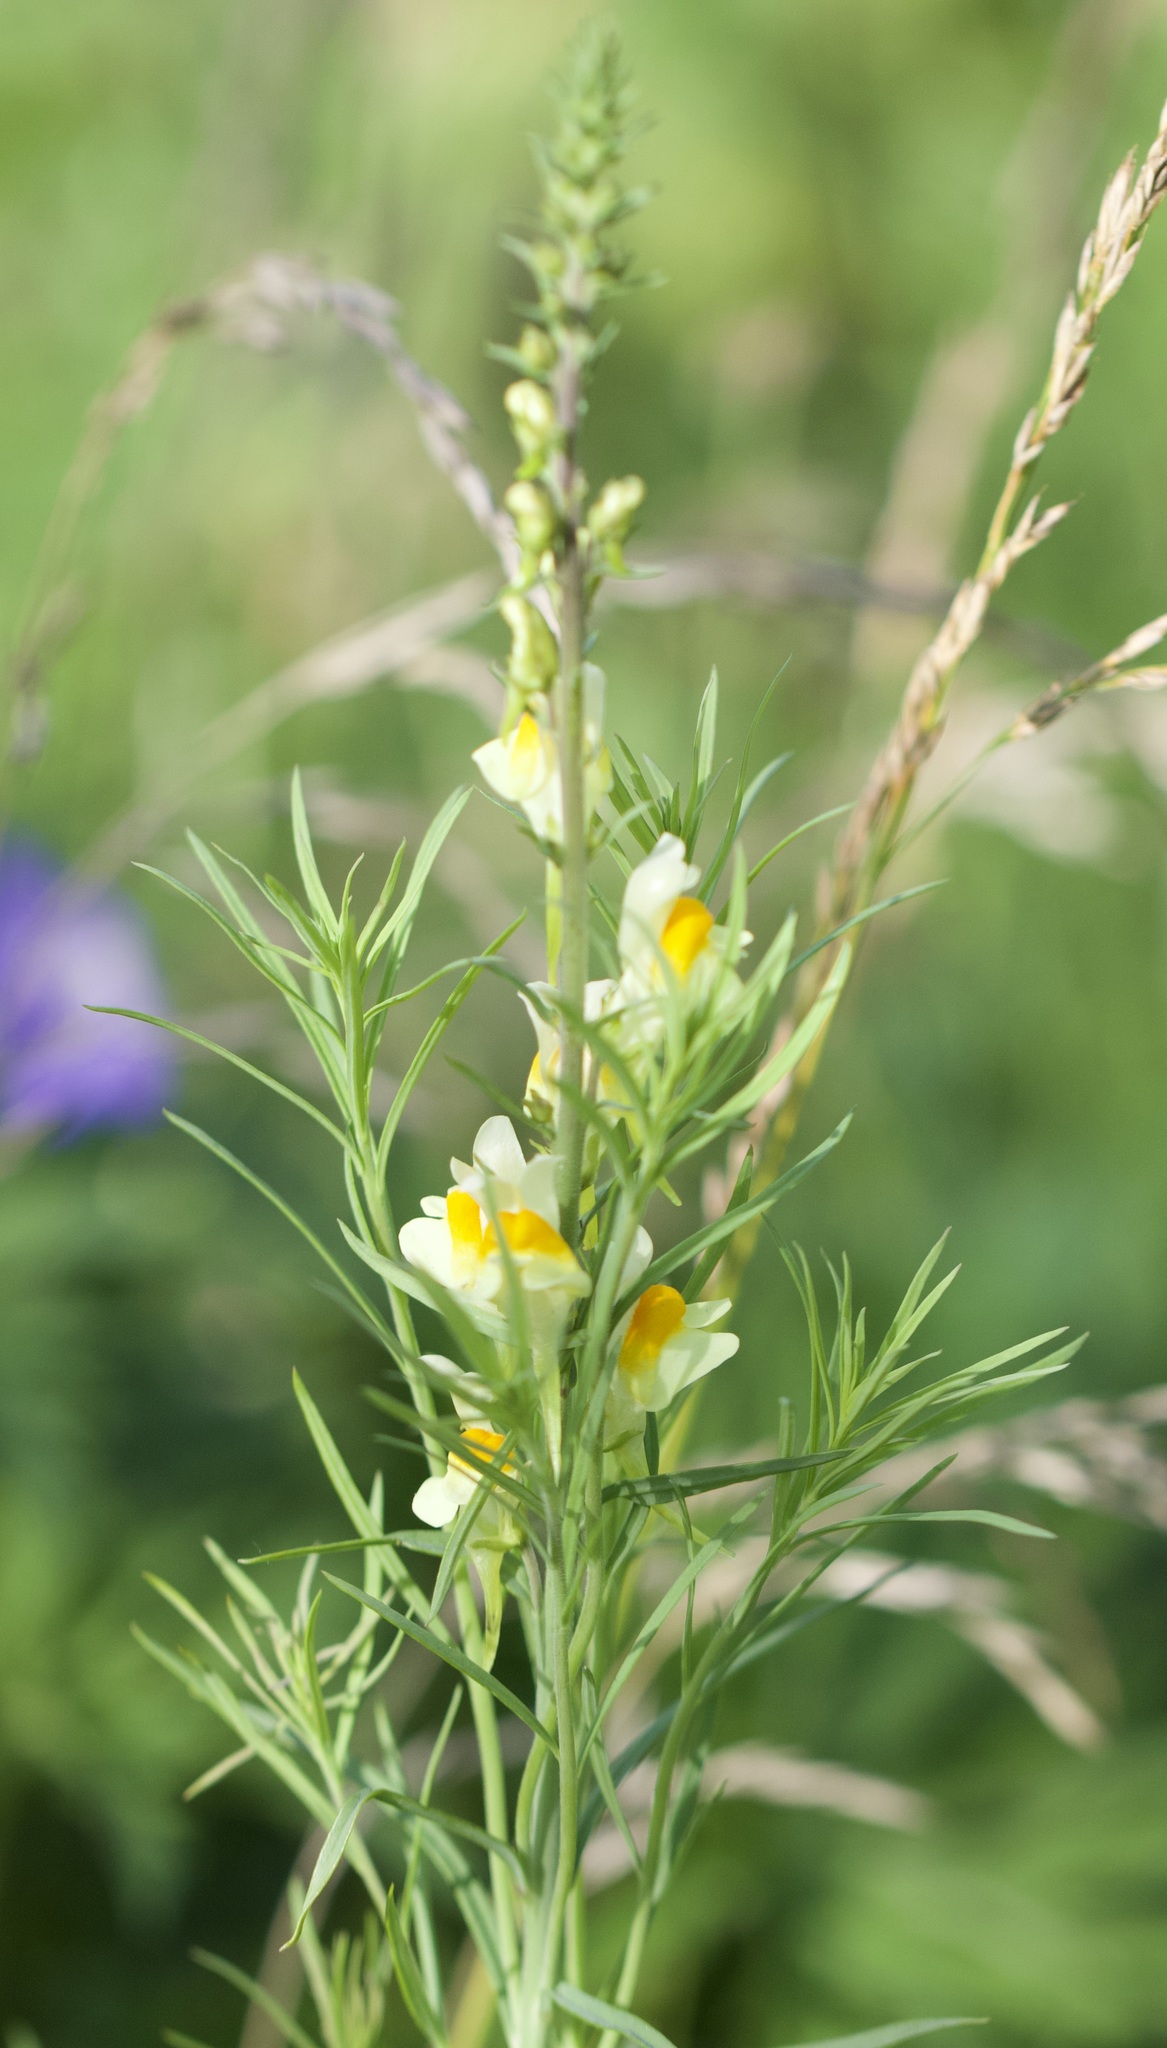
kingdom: Plantae
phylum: Tracheophyta
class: Magnoliopsida
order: Lamiales
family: Plantaginaceae
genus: Linaria
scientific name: Linaria vulgaris
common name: Butter and eggs
